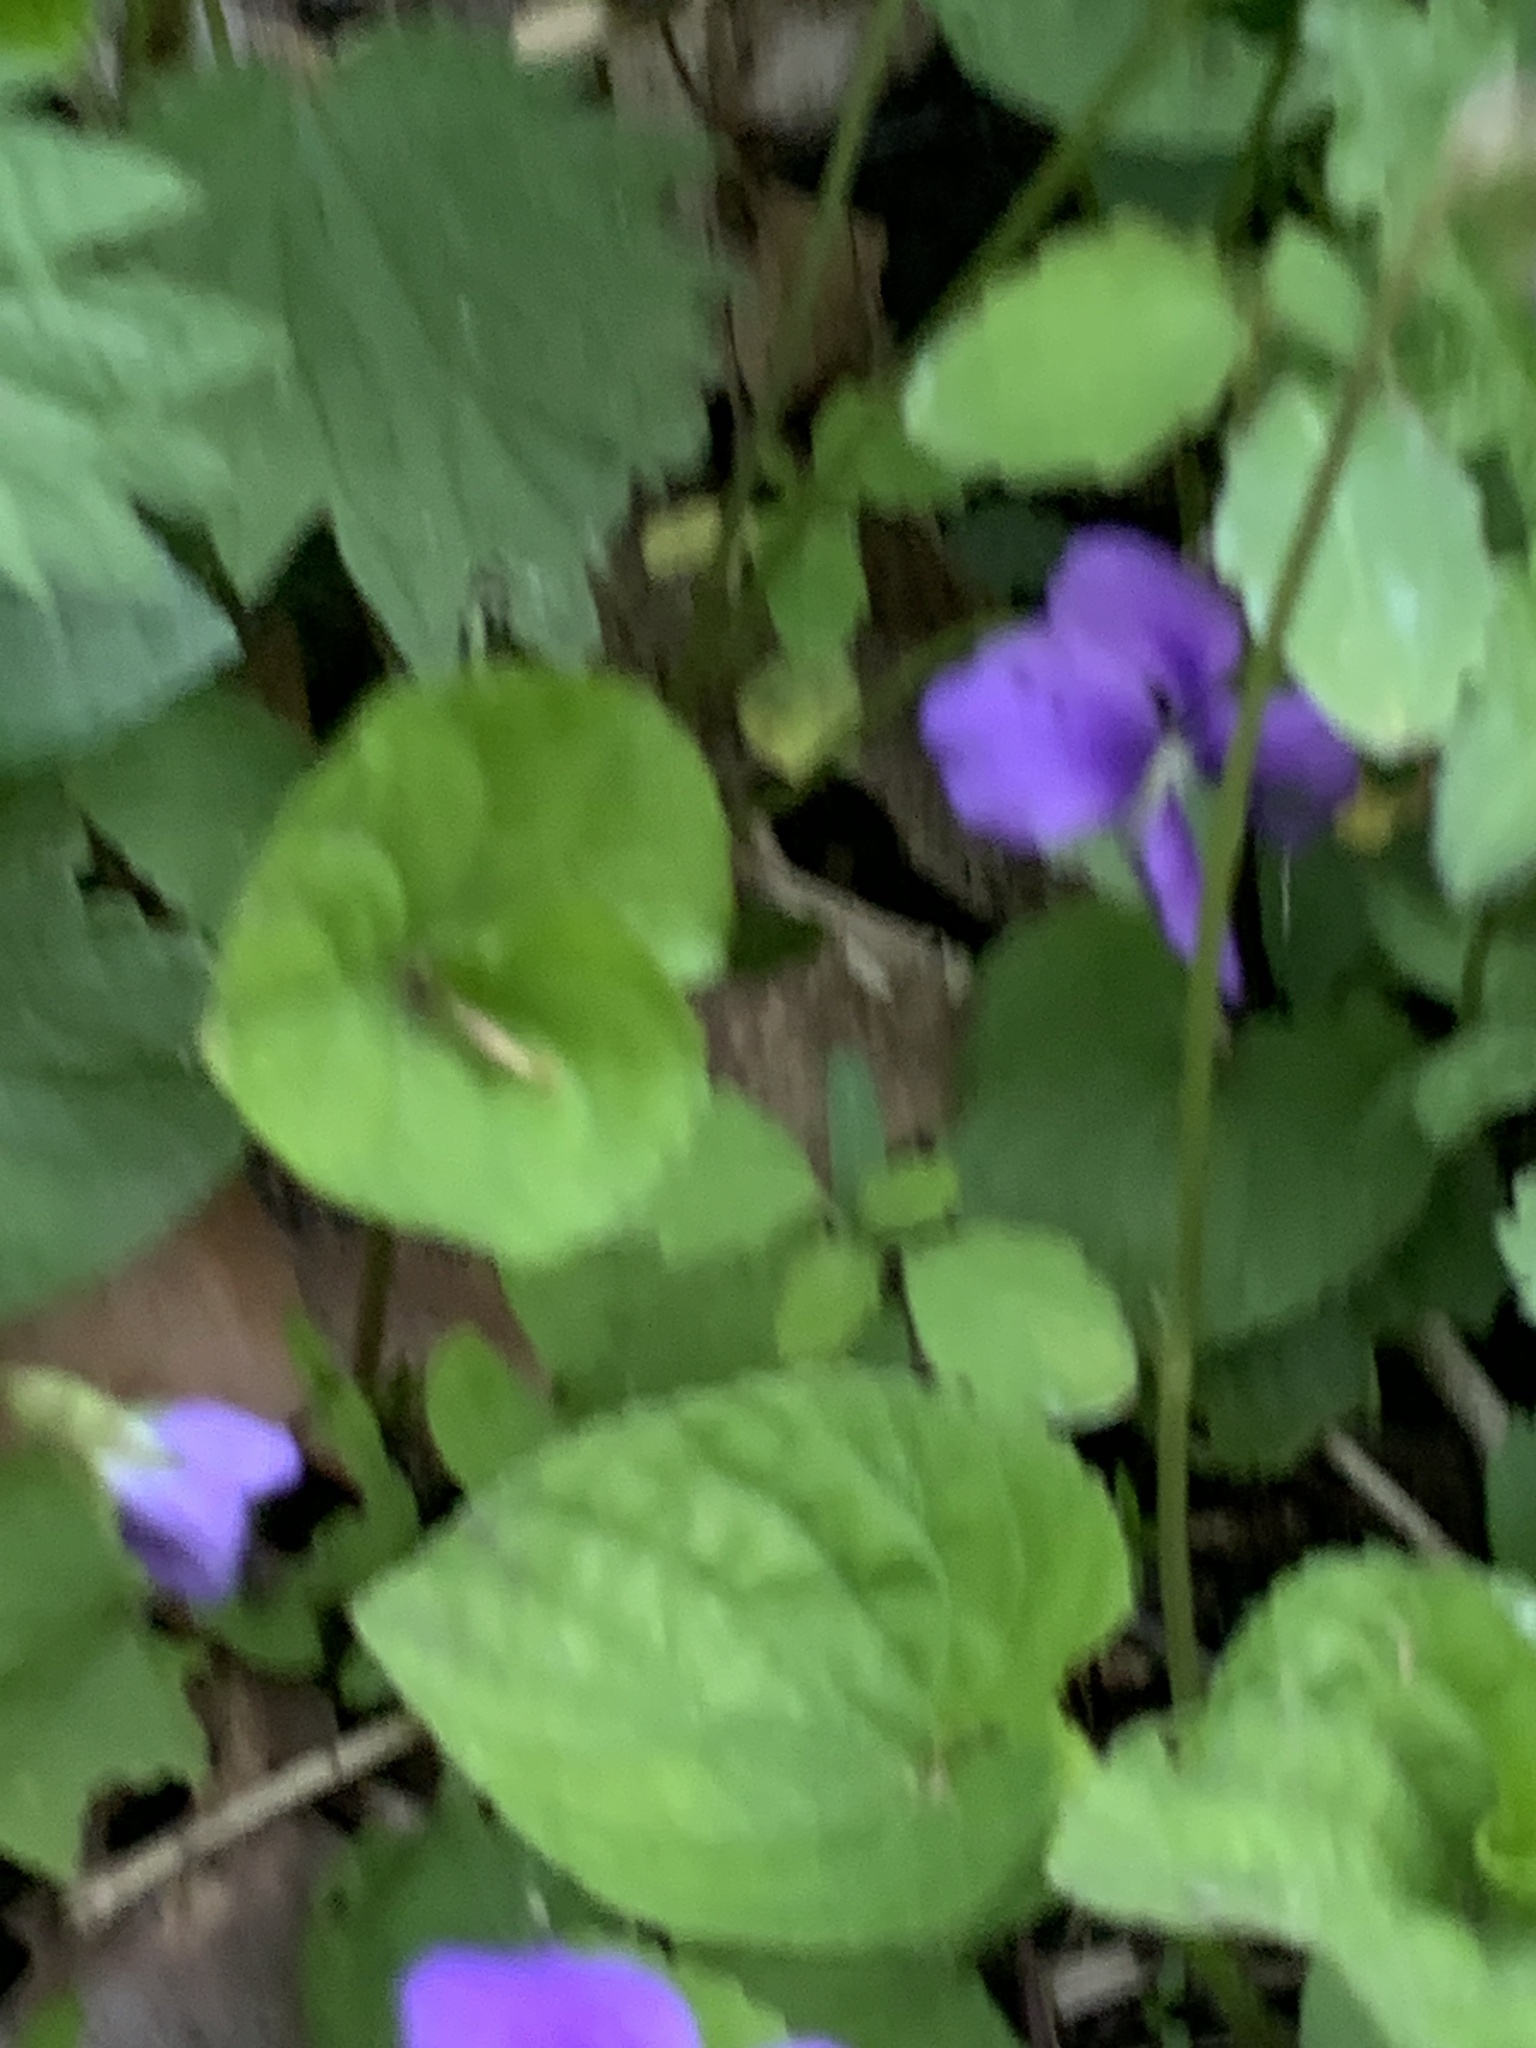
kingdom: Plantae
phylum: Tracheophyta
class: Magnoliopsida
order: Malpighiales
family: Violaceae
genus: Viola
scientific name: Viola sororia
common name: Dooryard violet
